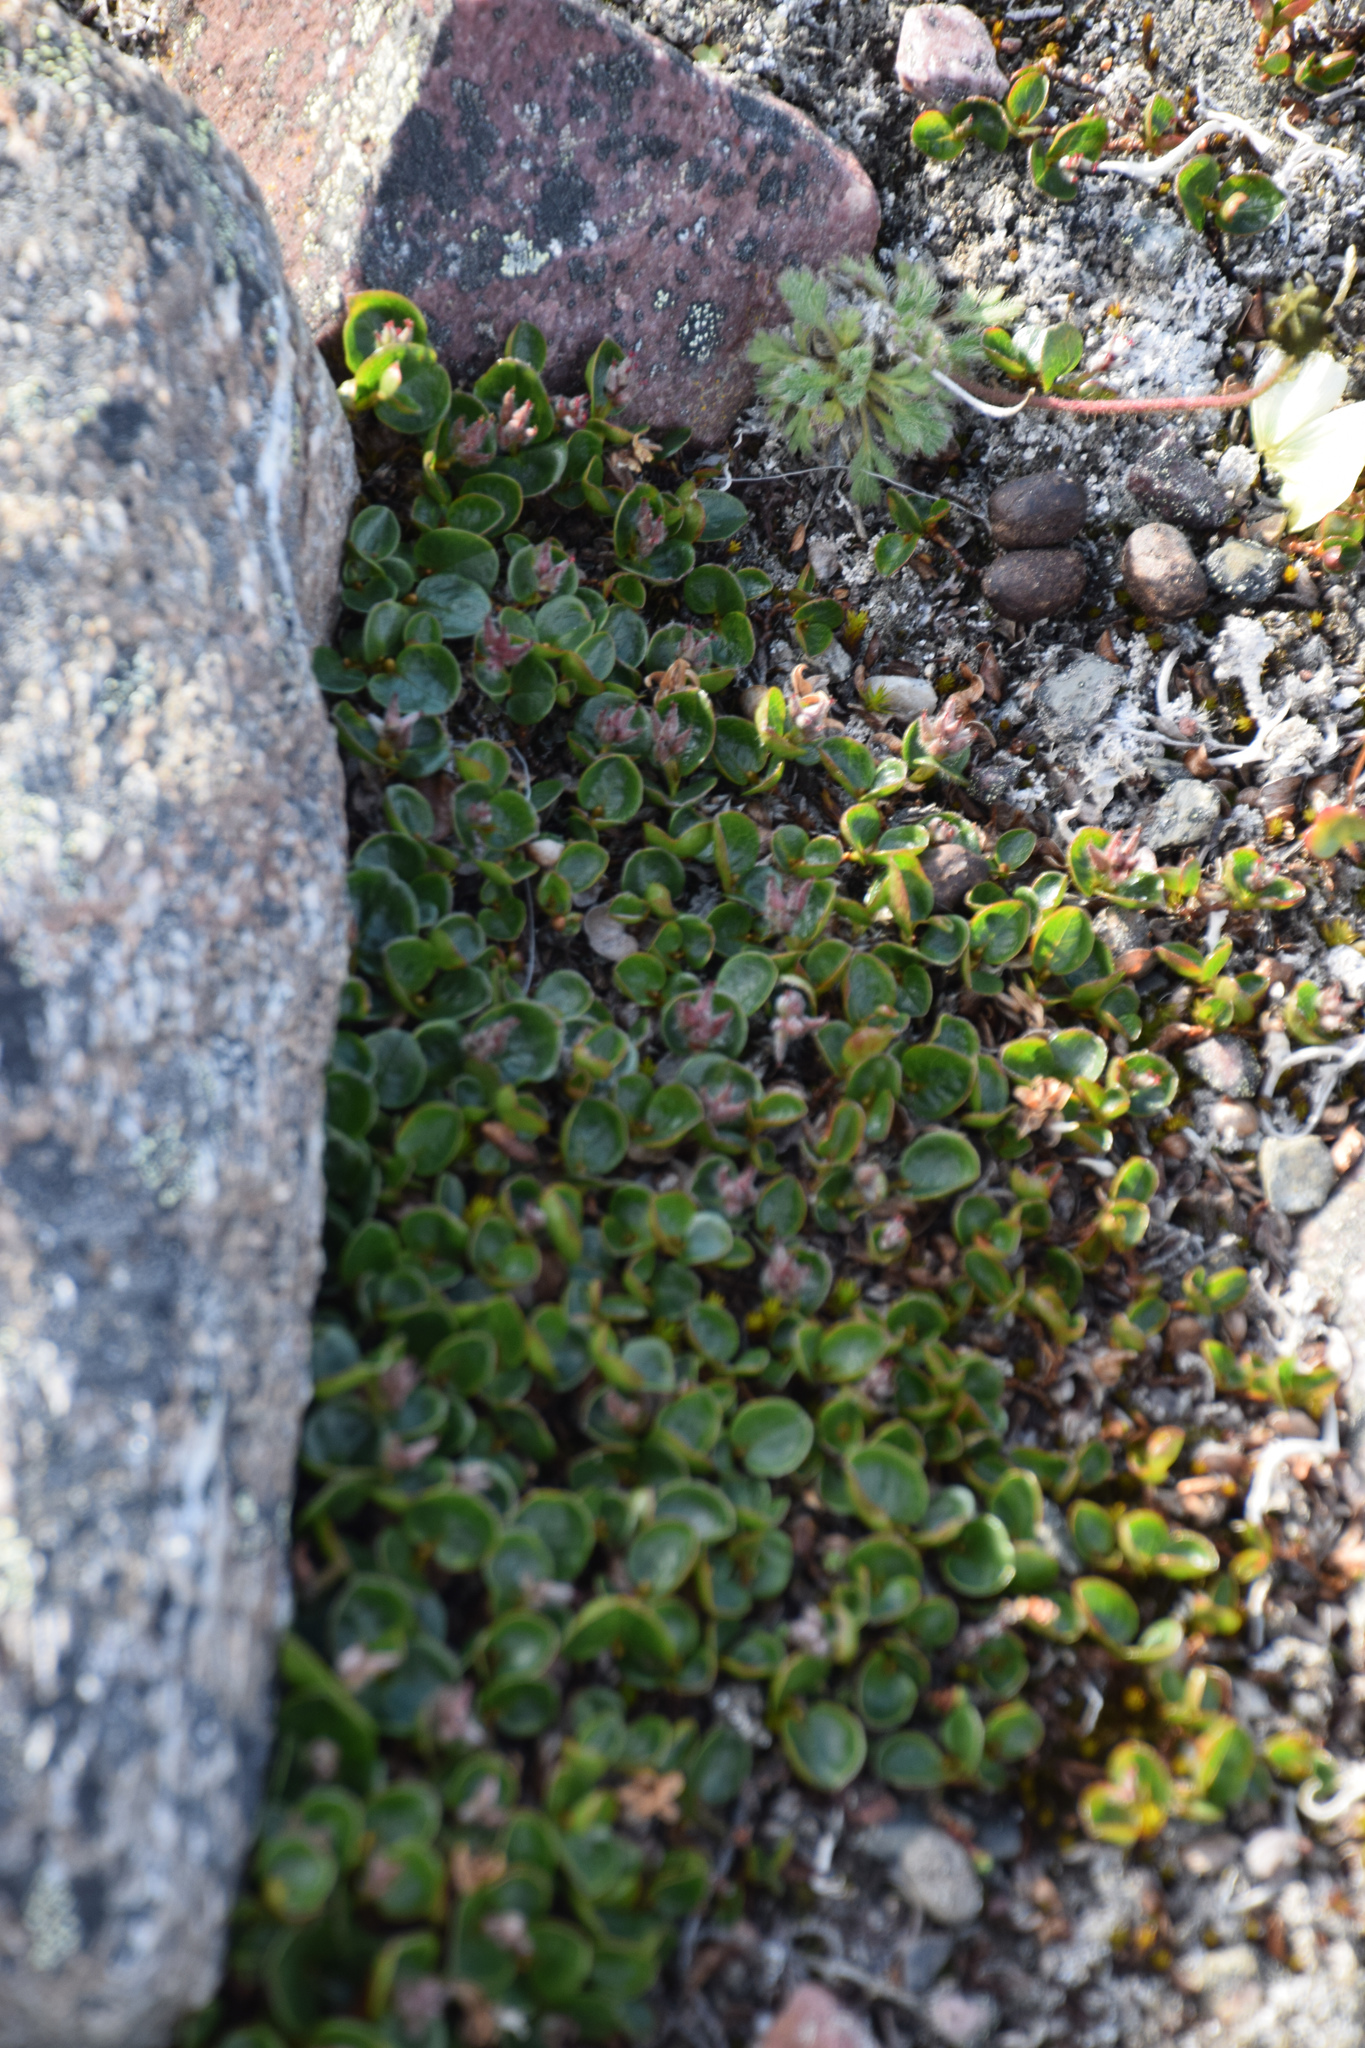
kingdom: Plantae
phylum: Tracheophyta
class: Magnoliopsida
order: Malpighiales
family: Salicaceae
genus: Salix
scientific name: Salix polaris
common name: Polar willow
